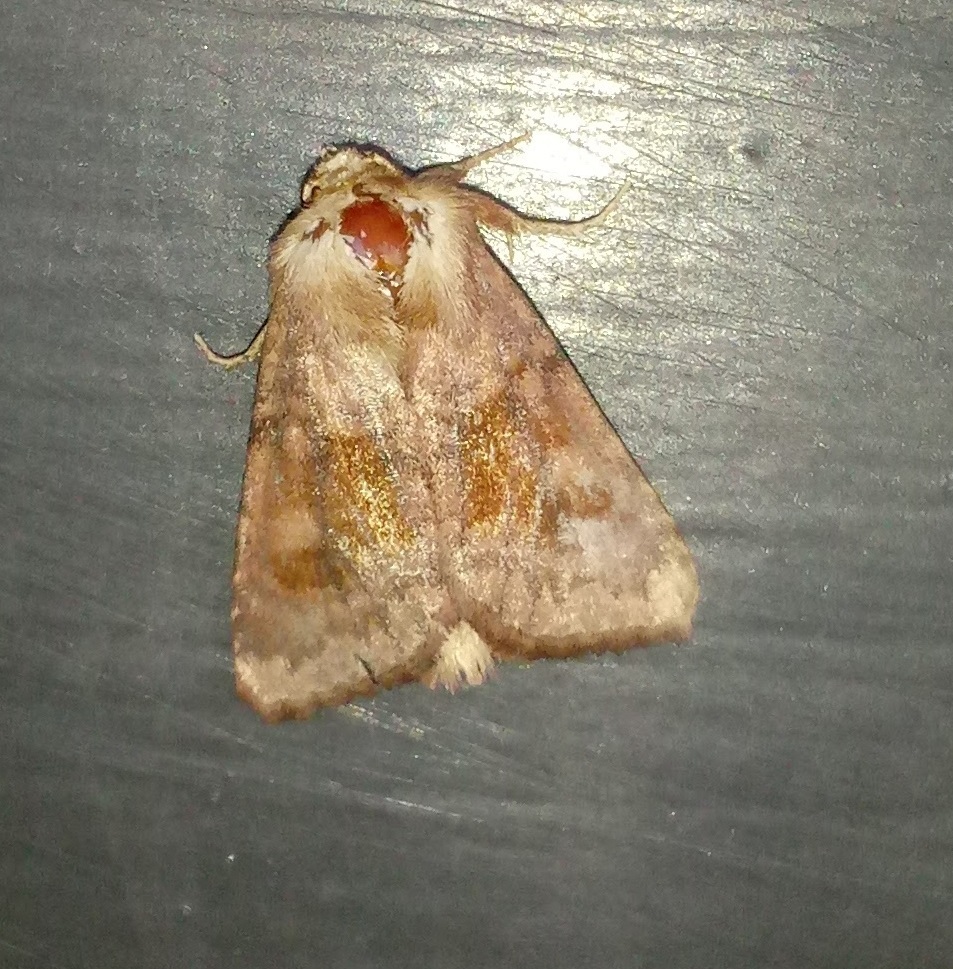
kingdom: Animalia
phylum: Arthropoda
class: Insecta
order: Lepidoptera
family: Noctuidae
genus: Nephelodes
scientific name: Nephelodes minians
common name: Bronzed cutworm
